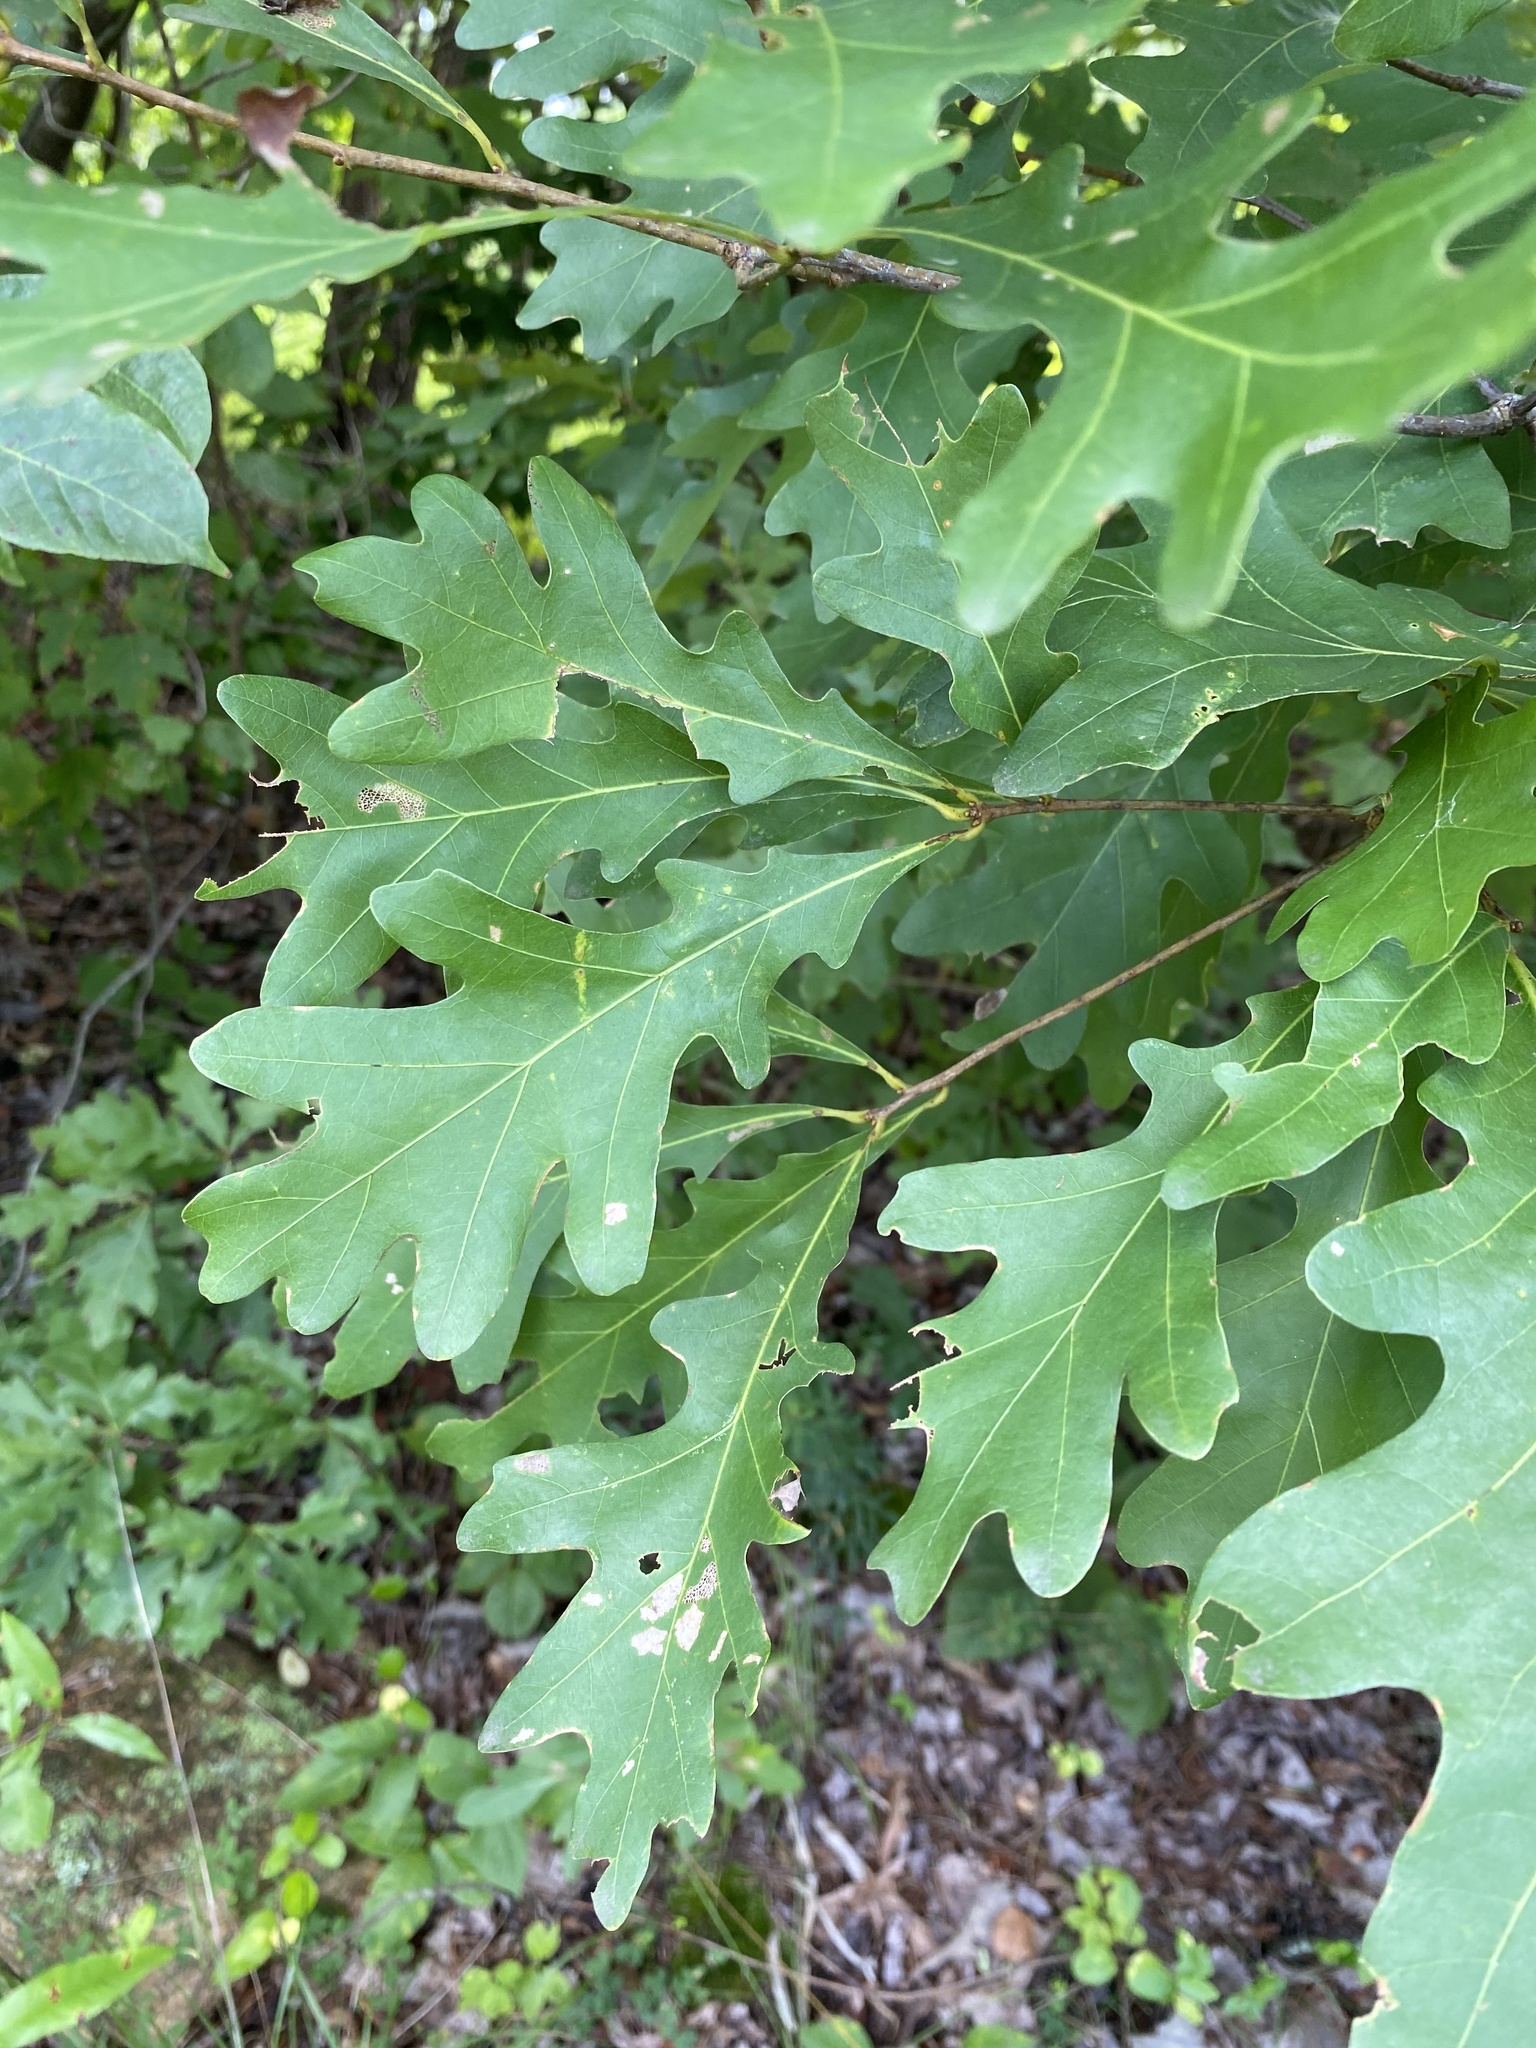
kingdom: Plantae
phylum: Tracheophyta
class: Magnoliopsida
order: Fagales
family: Fagaceae
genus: Quercus
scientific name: Quercus alba
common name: White oak
